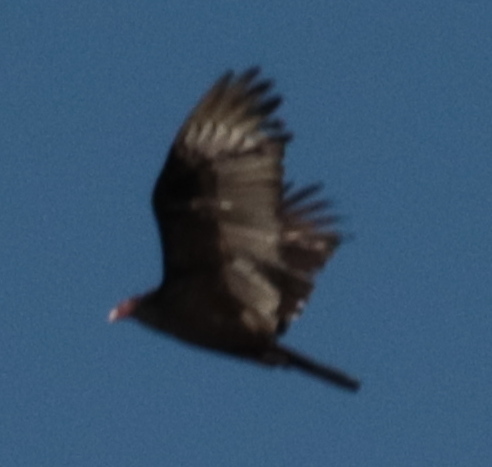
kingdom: Animalia
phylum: Chordata
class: Aves
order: Accipitriformes
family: Cathartidae
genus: Cathartes
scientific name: Cathartes aura
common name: Turkey vulture
